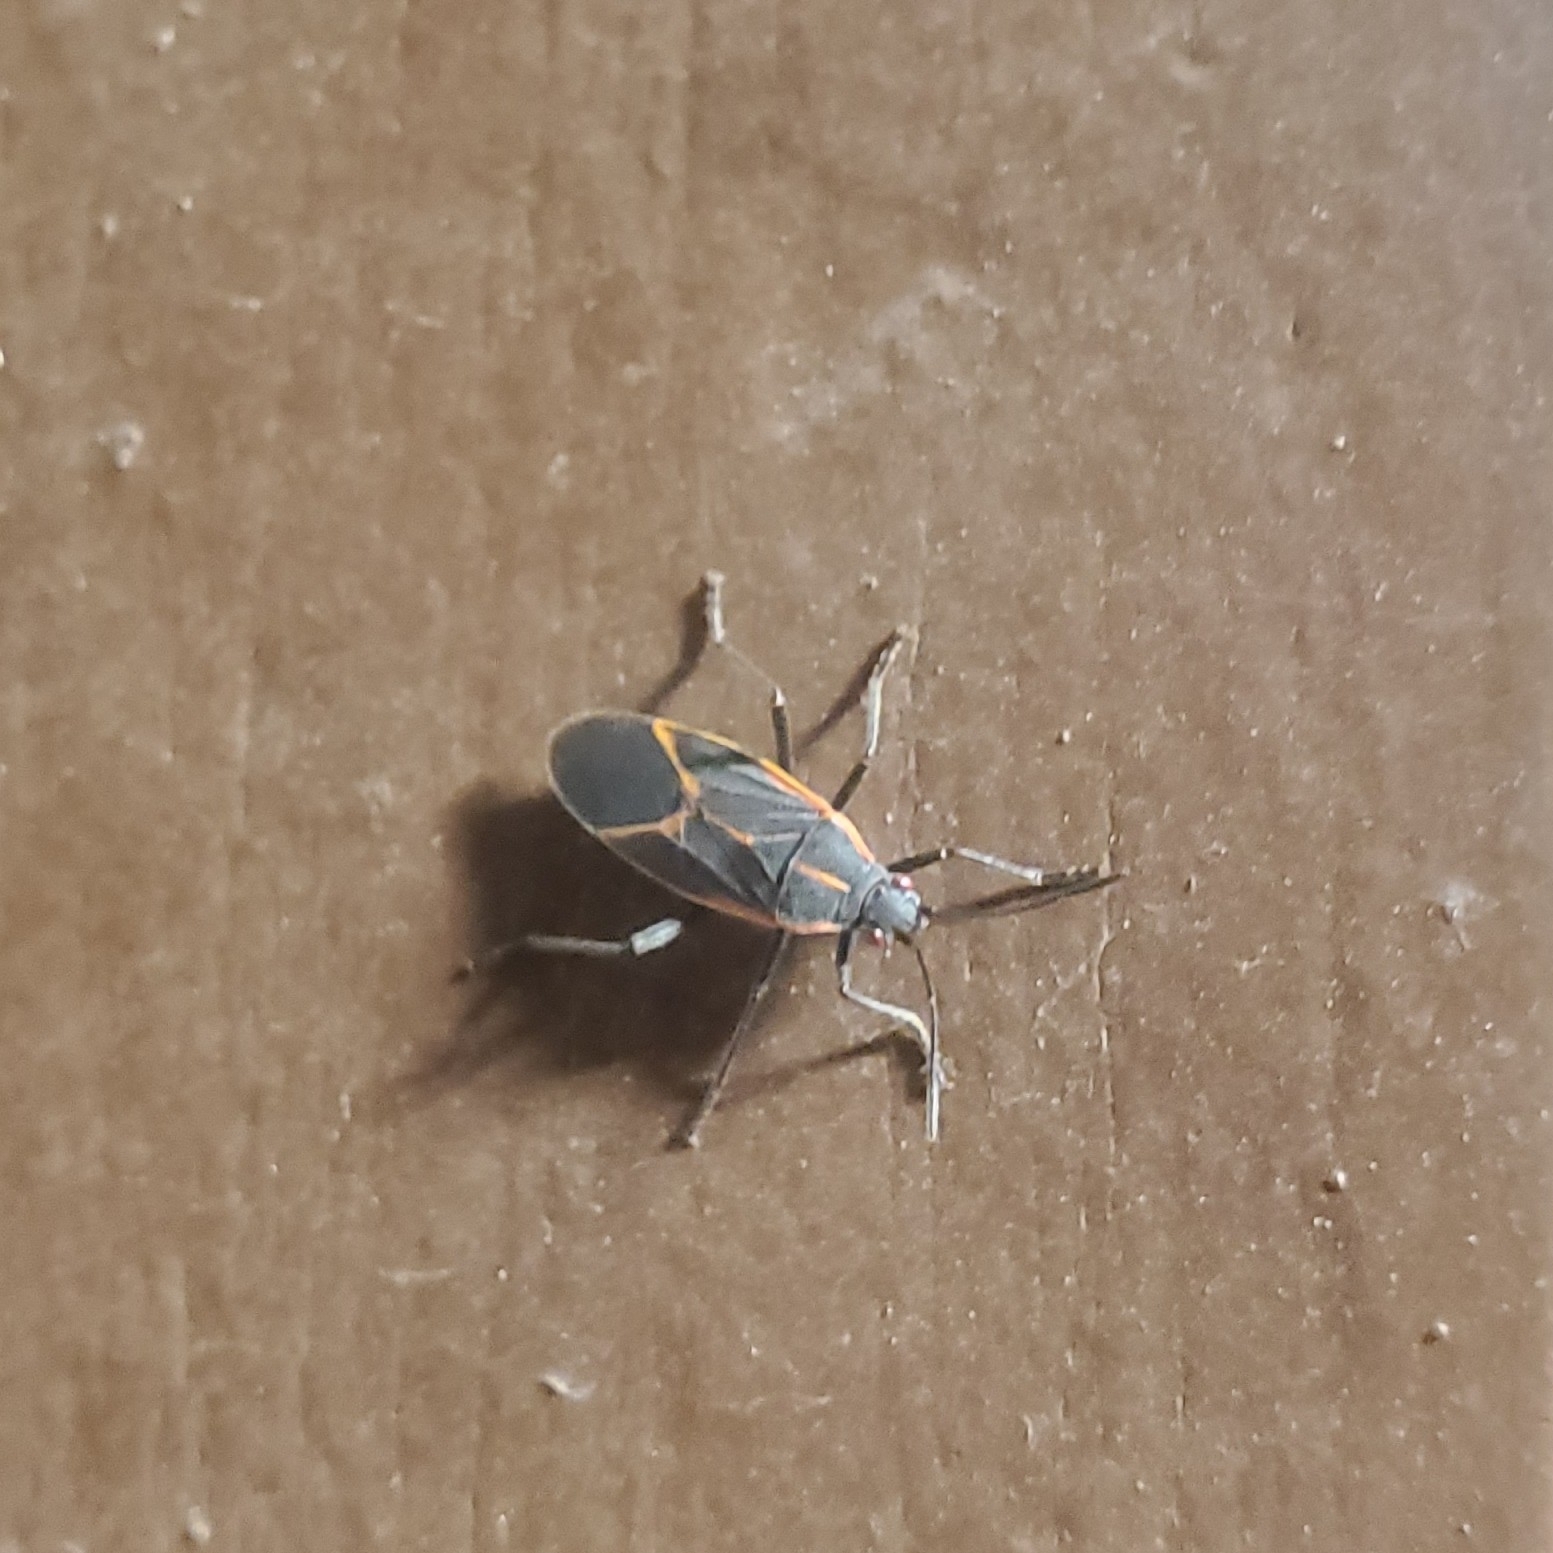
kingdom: Animalia
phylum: Arthropoda
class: Insecta
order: Hemiptera
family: Rhopalidae
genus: Boisea
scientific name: Boisea trivittata
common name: Boxelder bug
